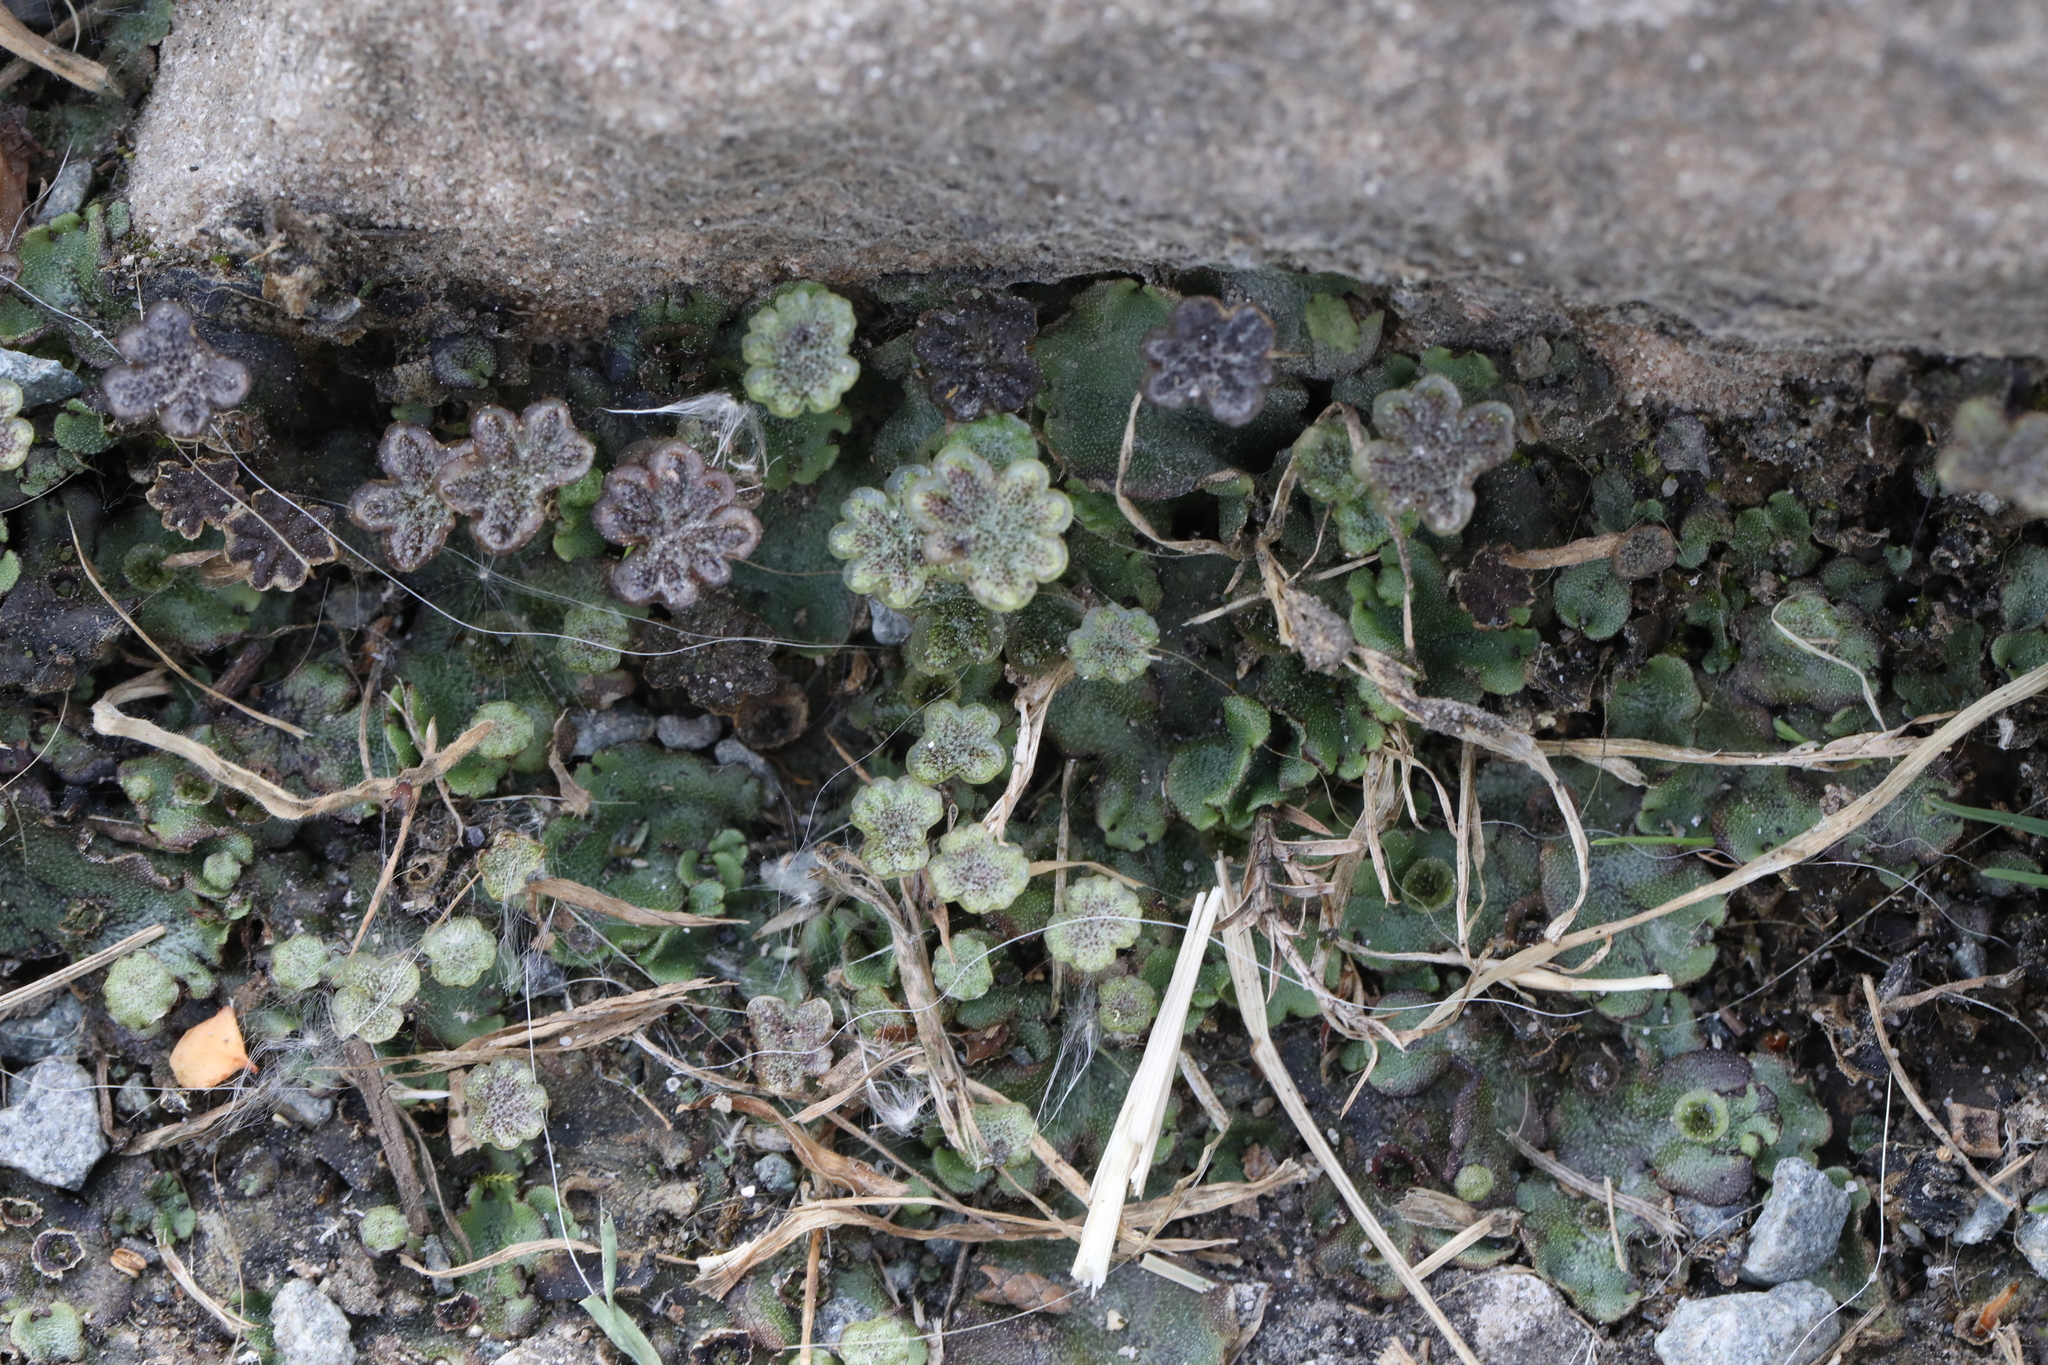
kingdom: Plantae
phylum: Marchantiophyta
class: Marchantiopsida
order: Marchantiales
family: Marchantiaceae
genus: Marchantia
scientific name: Marchantia polymorpha
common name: Common liverwort
